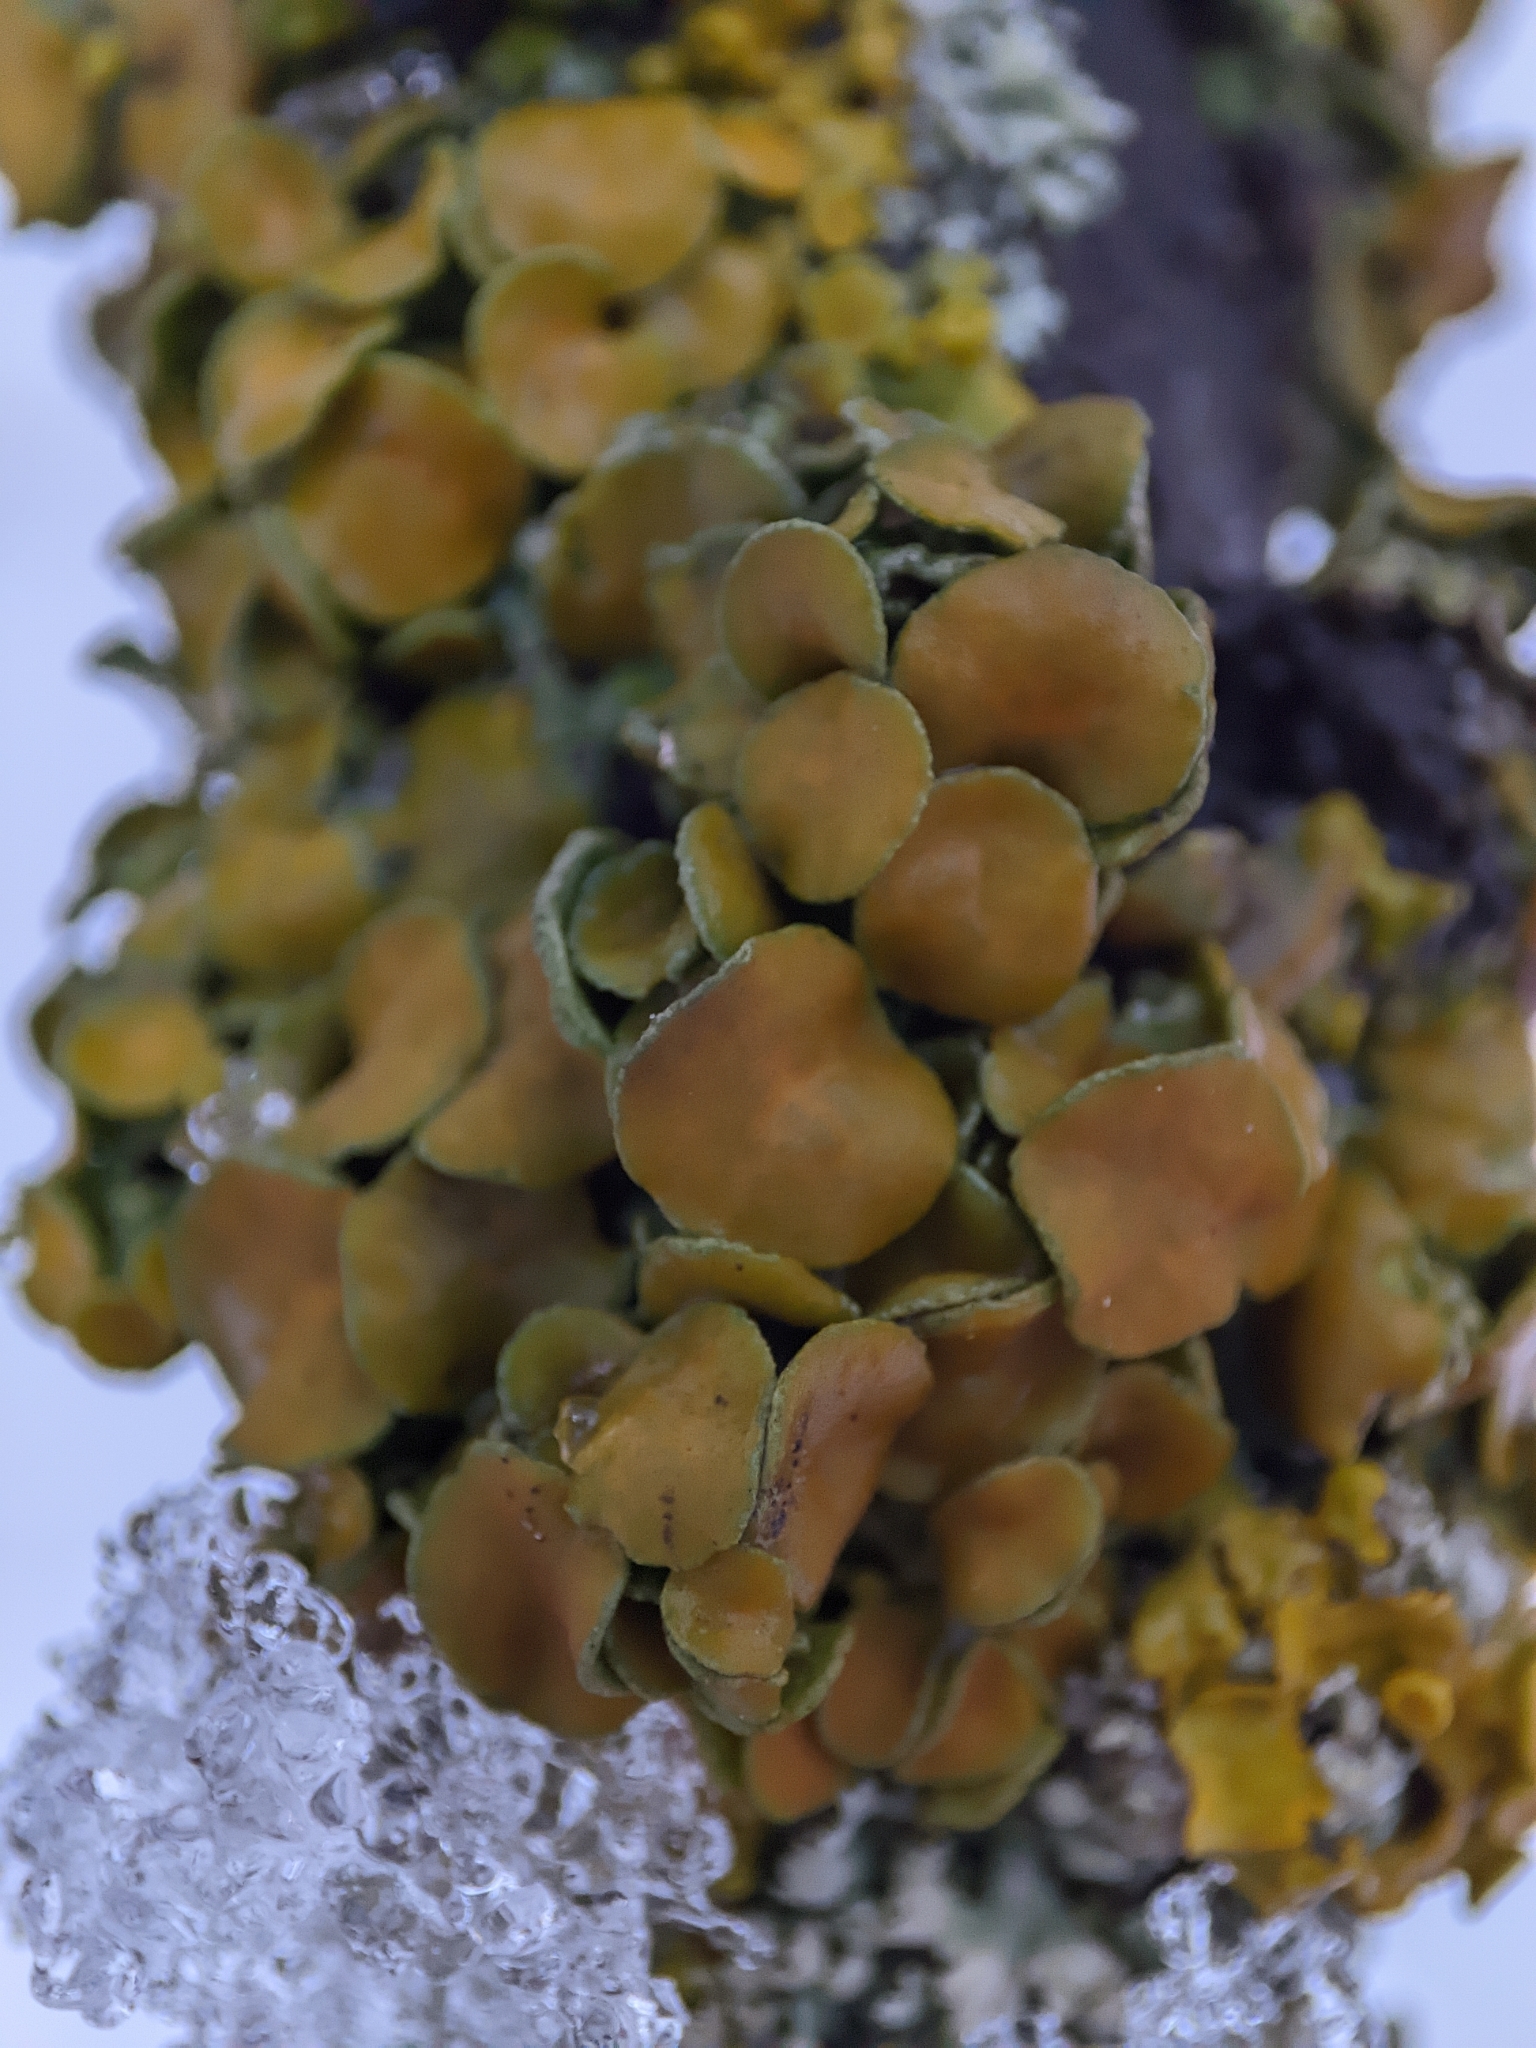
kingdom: Fungi
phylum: Ascomycota
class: Lecanoromycetes
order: Teloschistales
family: Teloschistaceae
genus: Xanthoria
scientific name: Xanthoria parietina
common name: Common orange lichen
